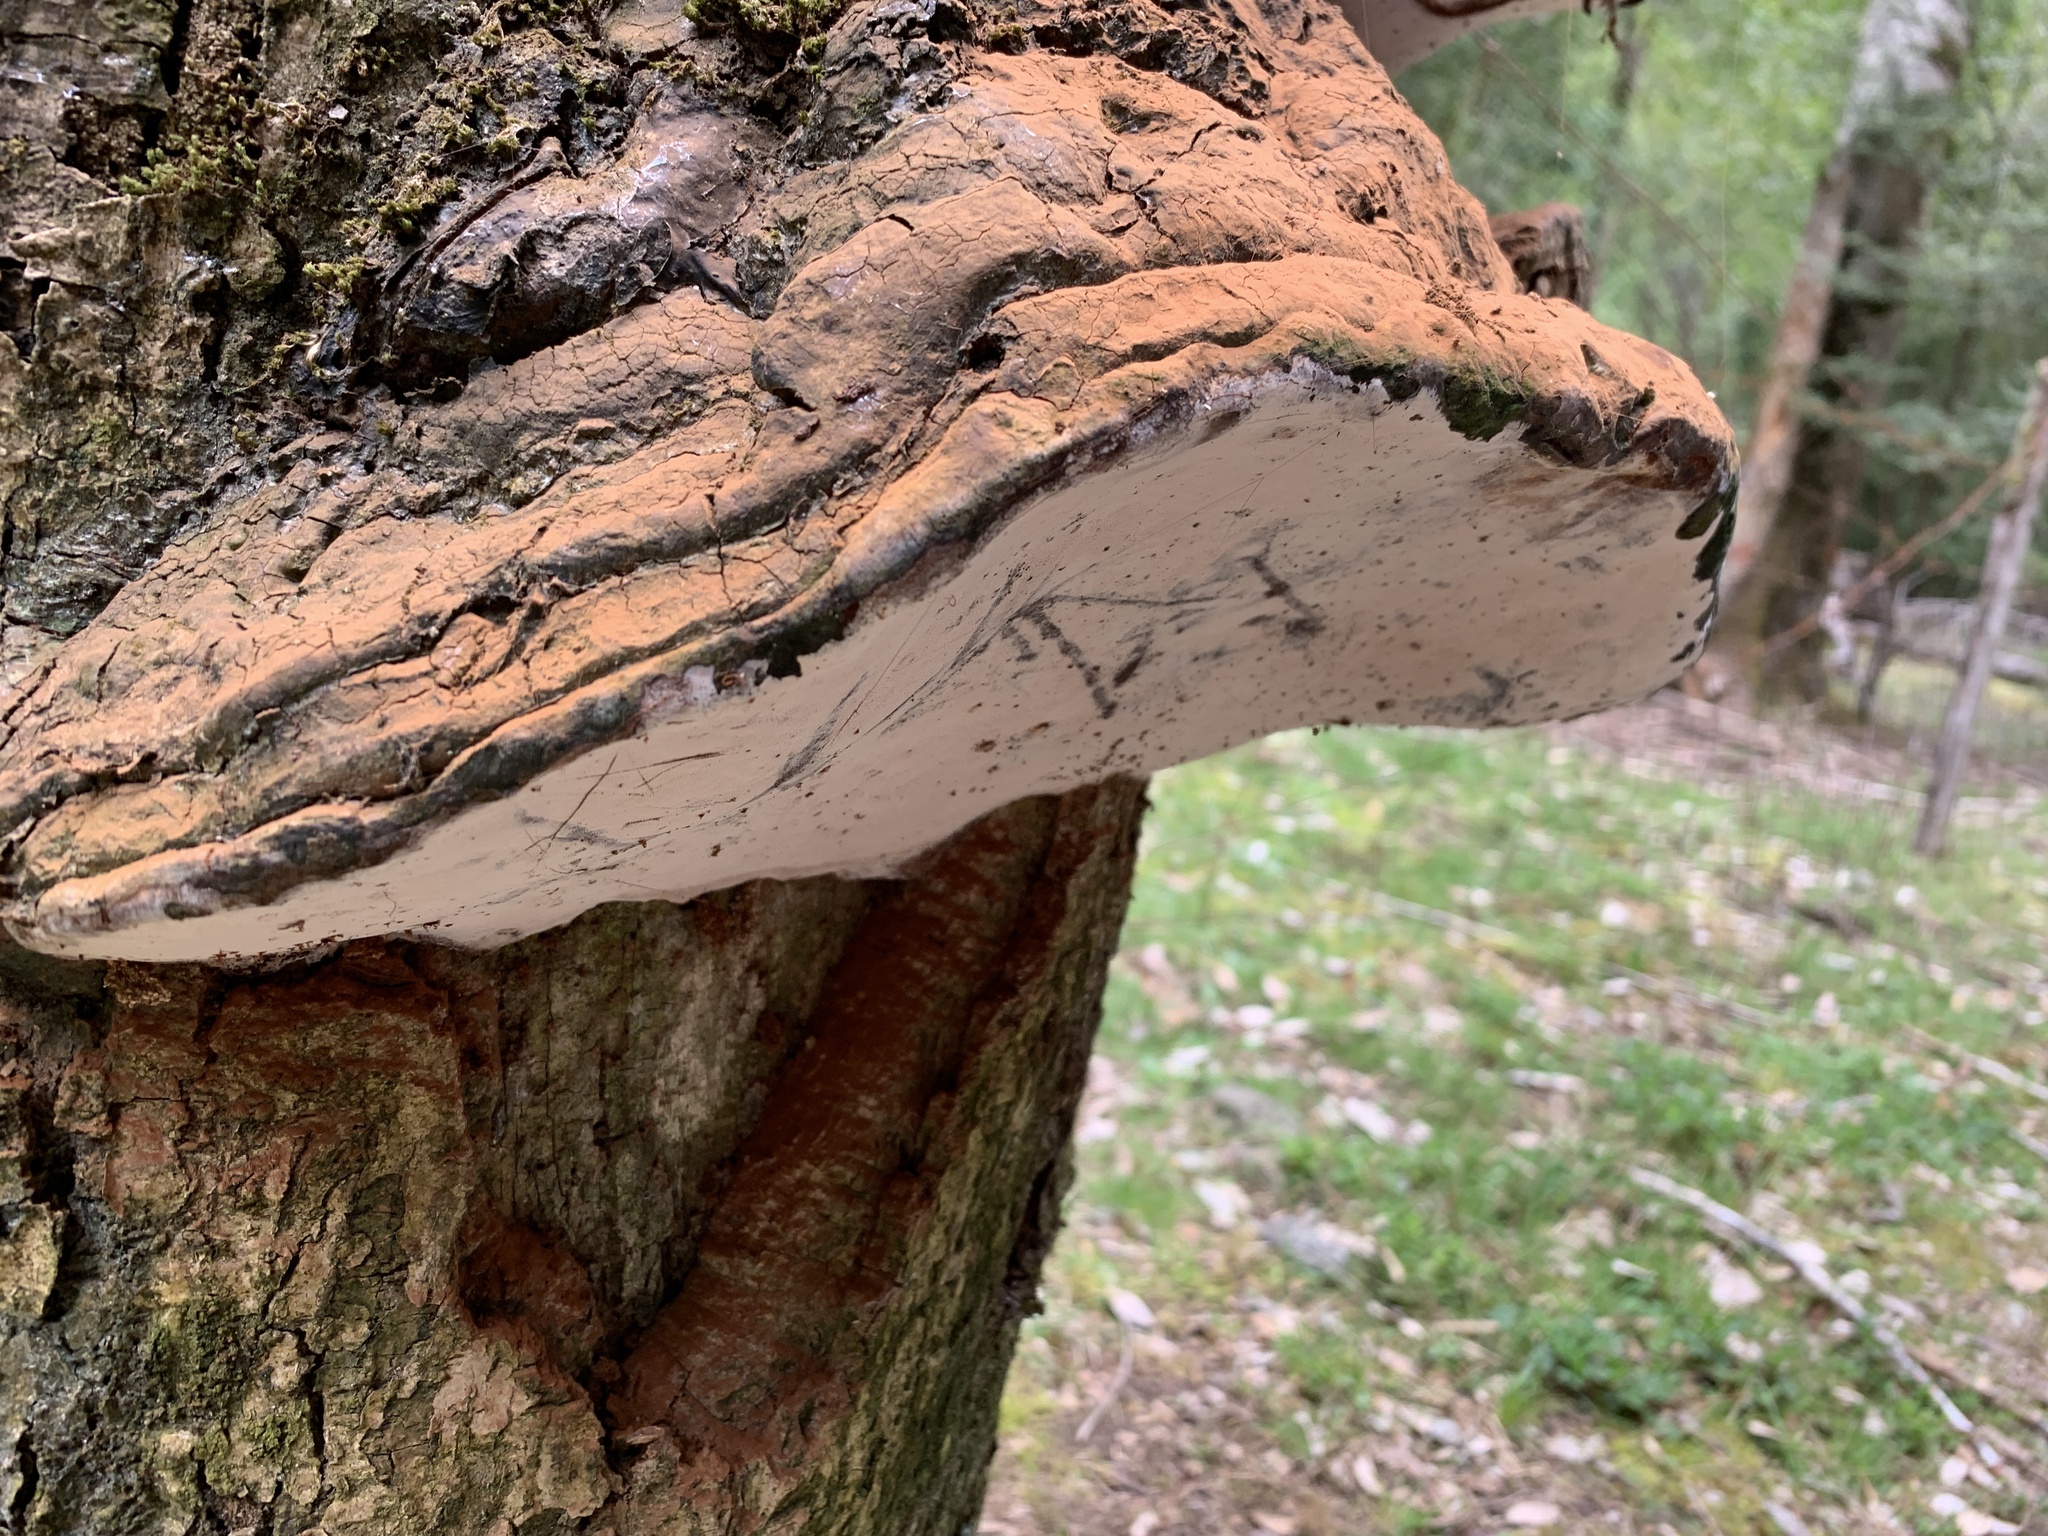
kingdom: Fungi
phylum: Basidiomycota
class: Agaricomycetes
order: Polyporales
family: Polyporaceae
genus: Ganoderma
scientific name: Ganoderma australe
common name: Southern bracket
